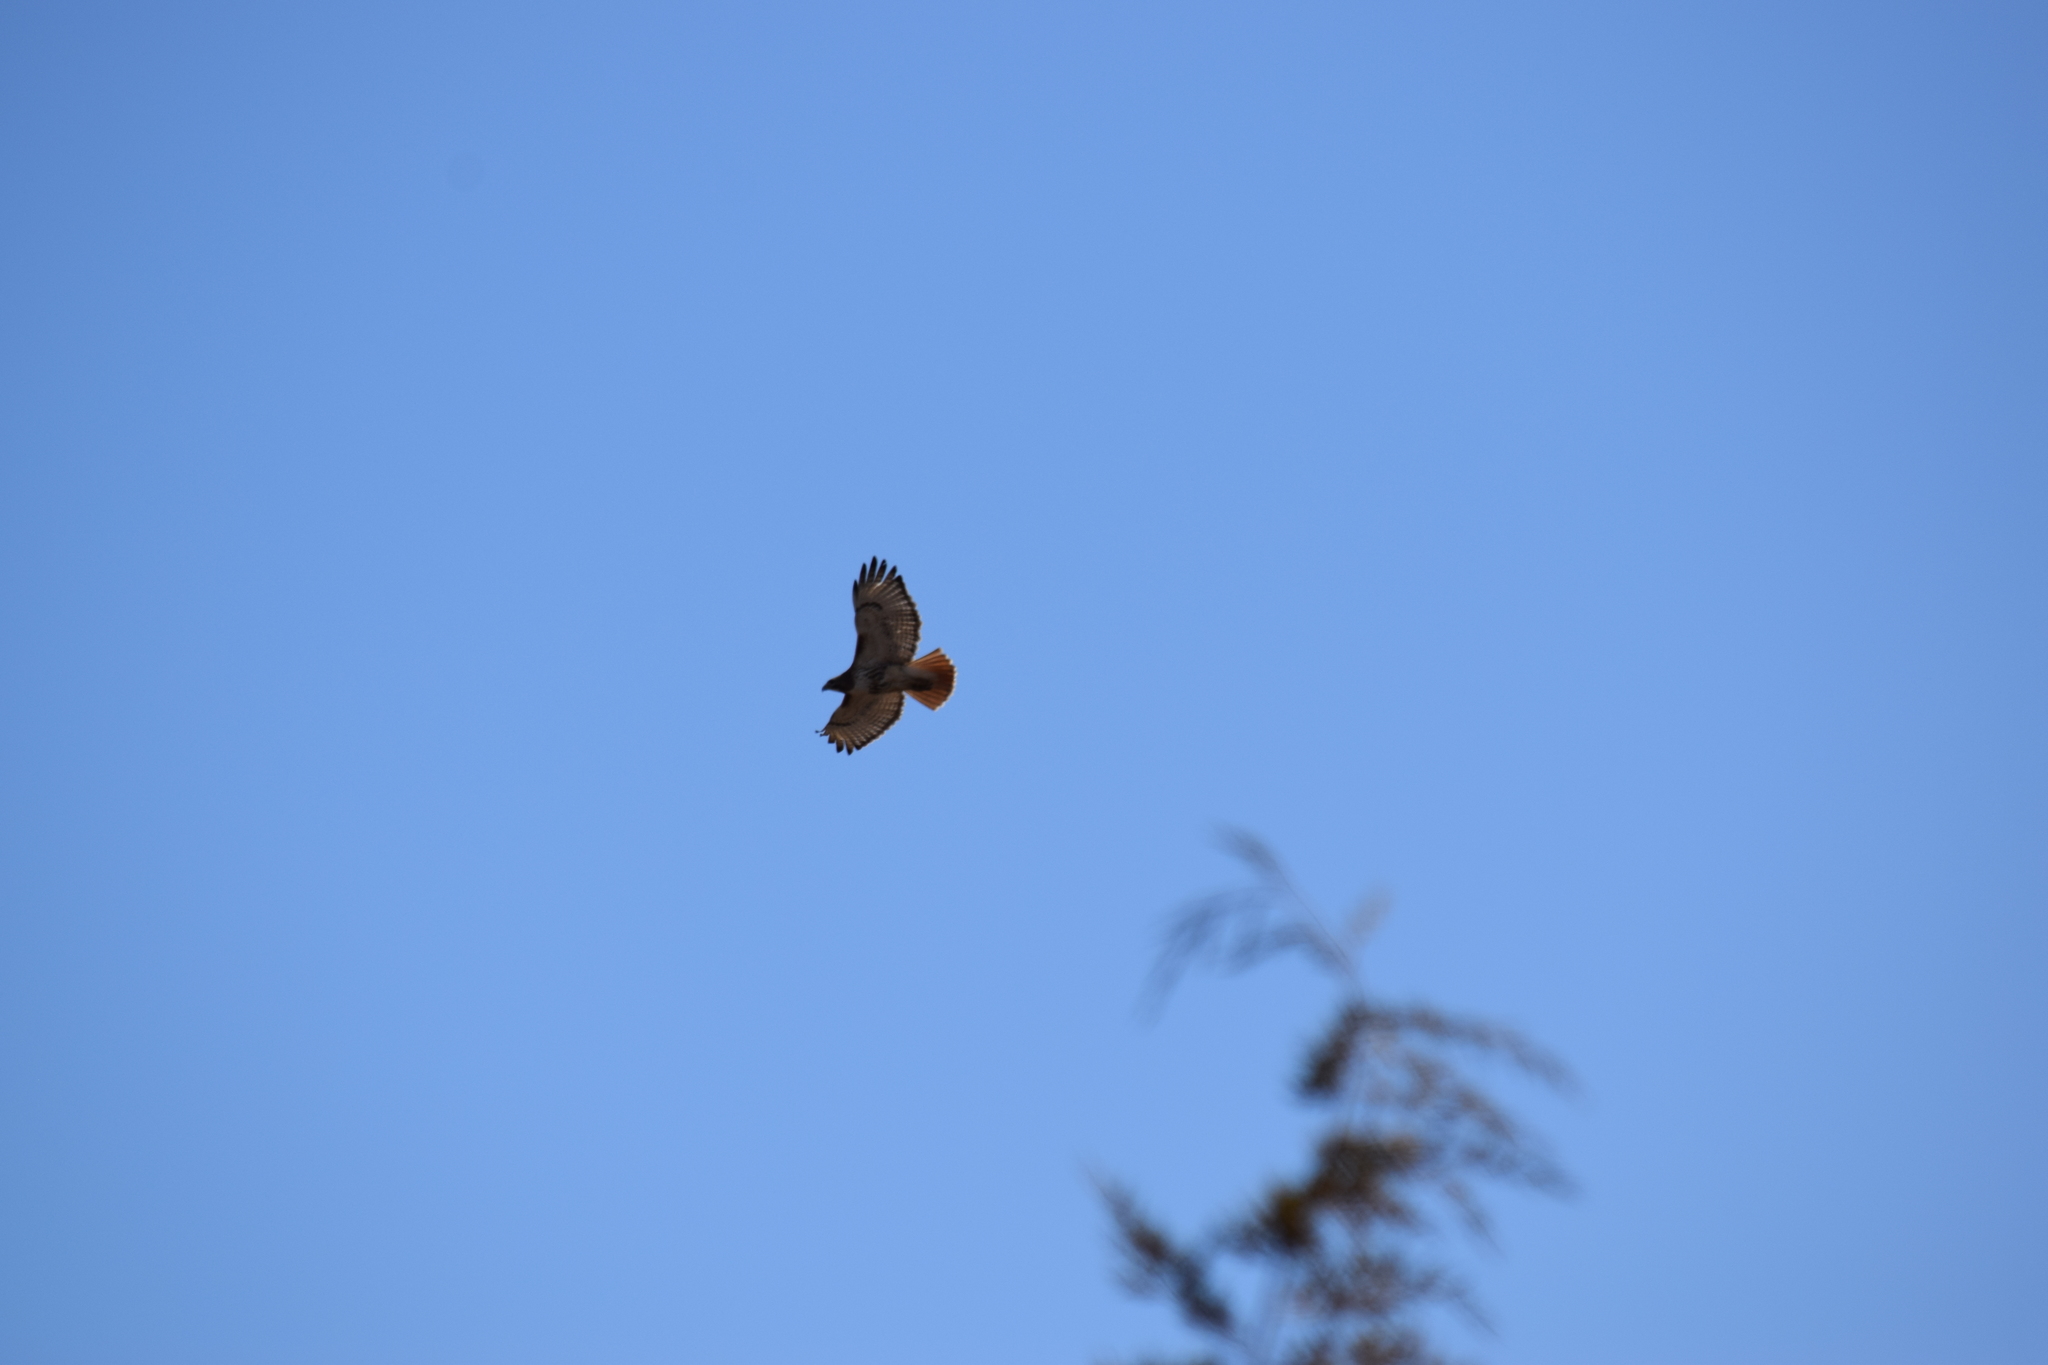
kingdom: Animalia
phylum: Chordata
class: Aves
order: Accipitriformes
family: Accipitridae
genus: Buteo
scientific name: Buteo jamaicensis
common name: Red-tailed hawk
